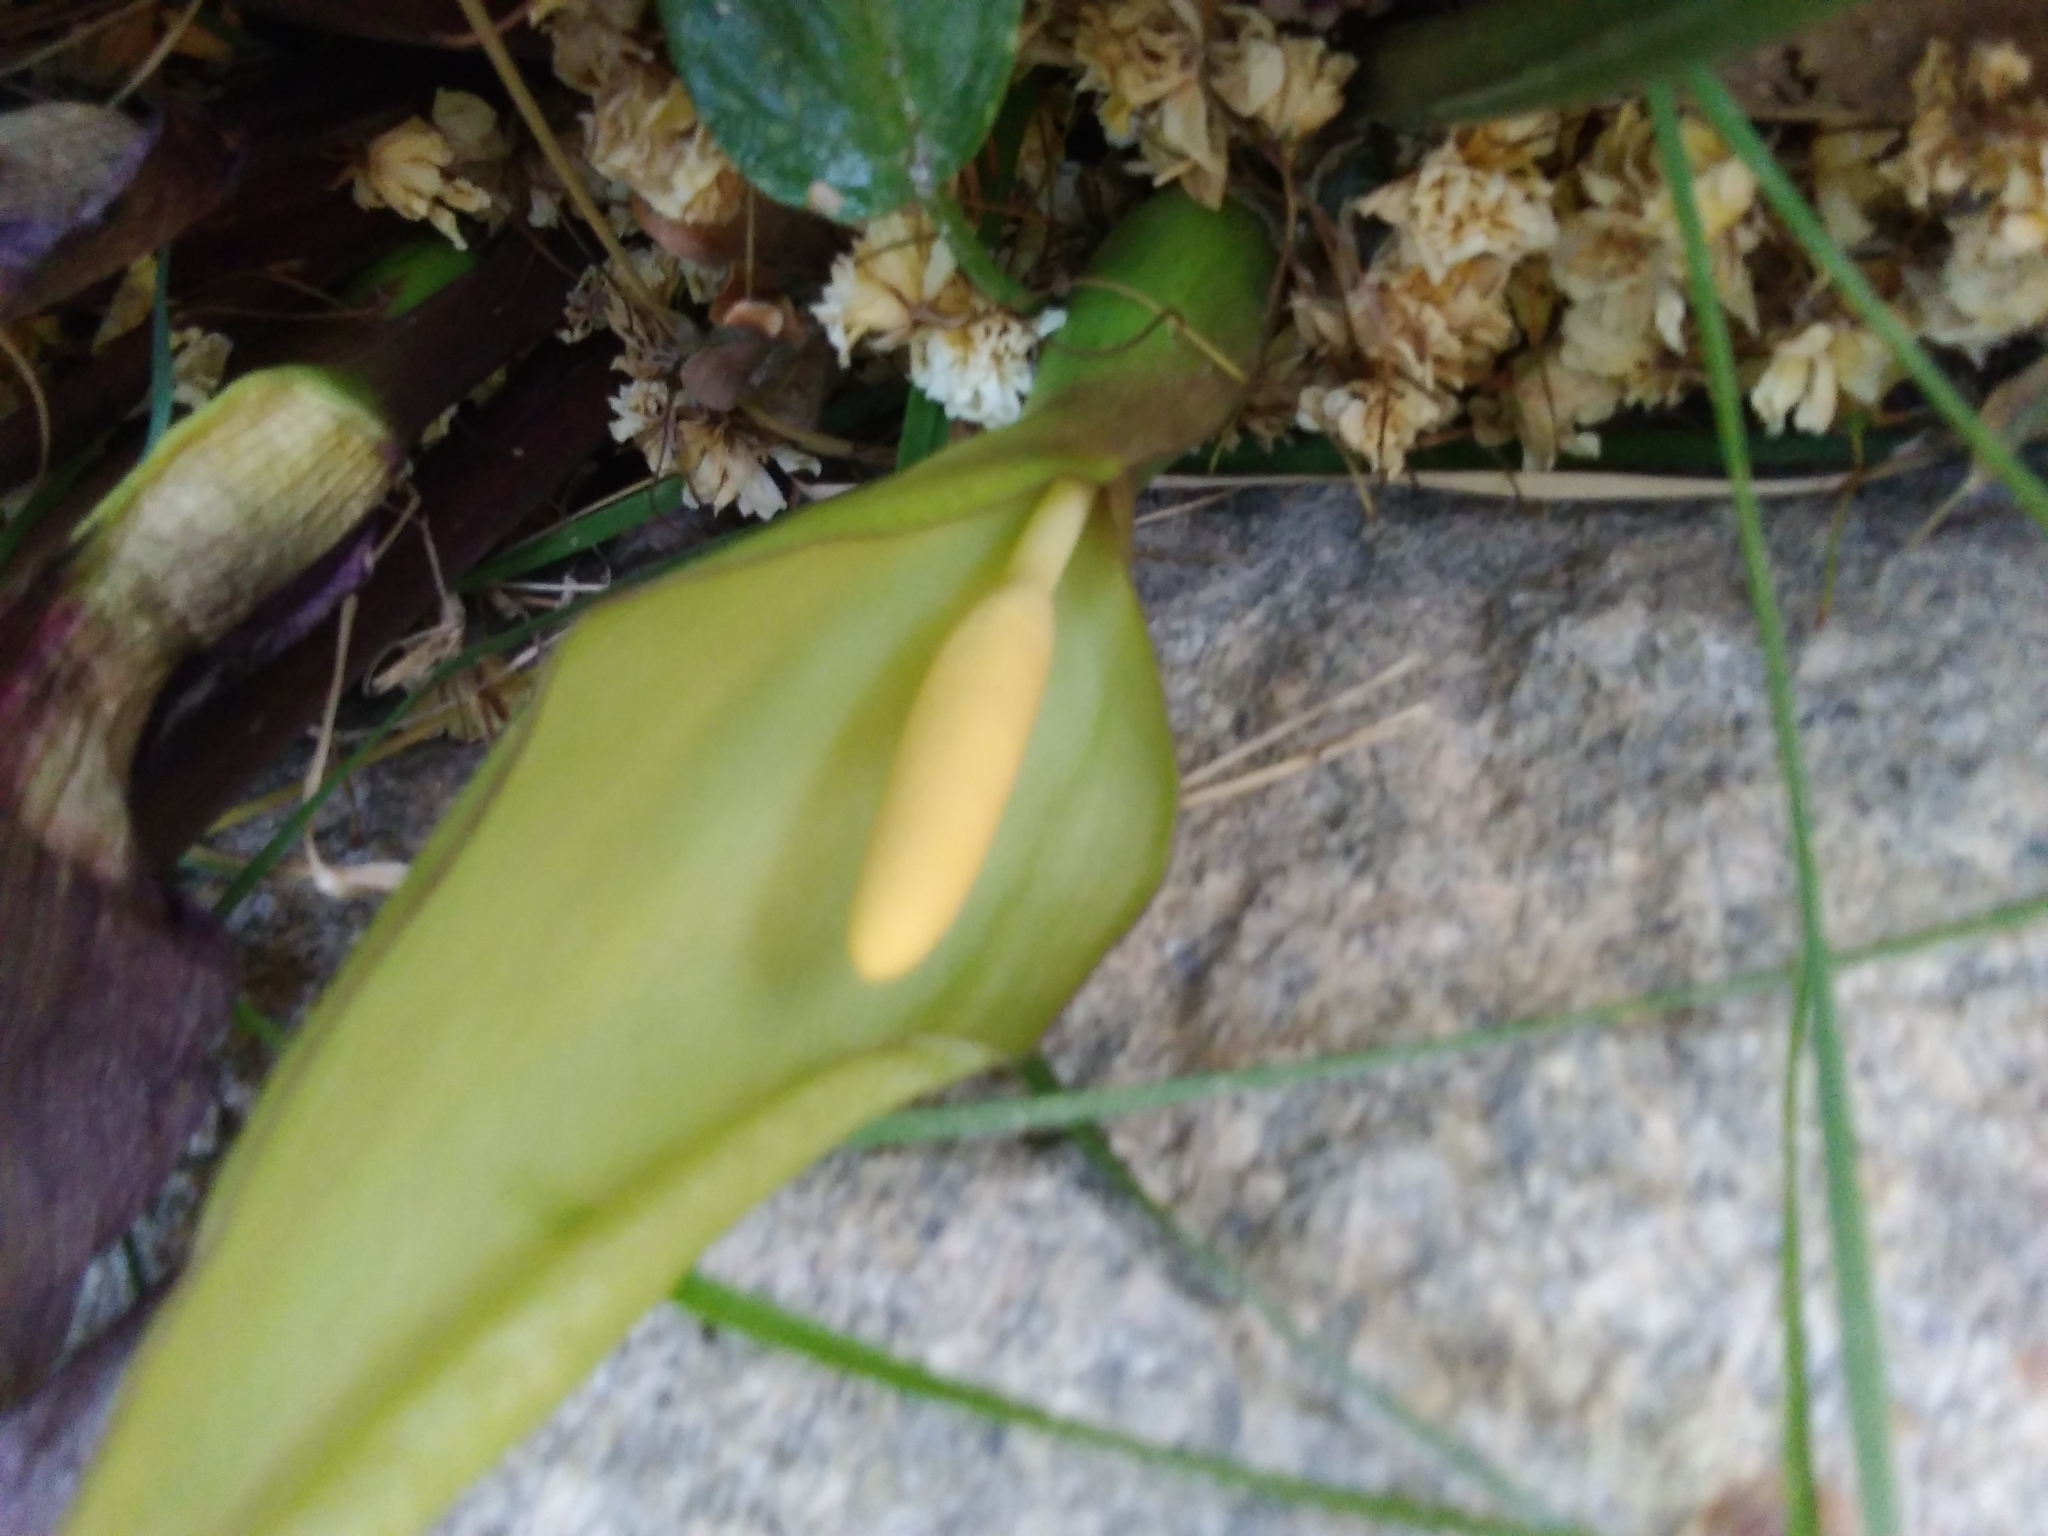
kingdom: Plantae
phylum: Tracheophyta
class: Liliopsida
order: Alismatales
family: Araceae
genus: Arum
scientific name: Arum italicum
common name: Italian lords-and-ladies
